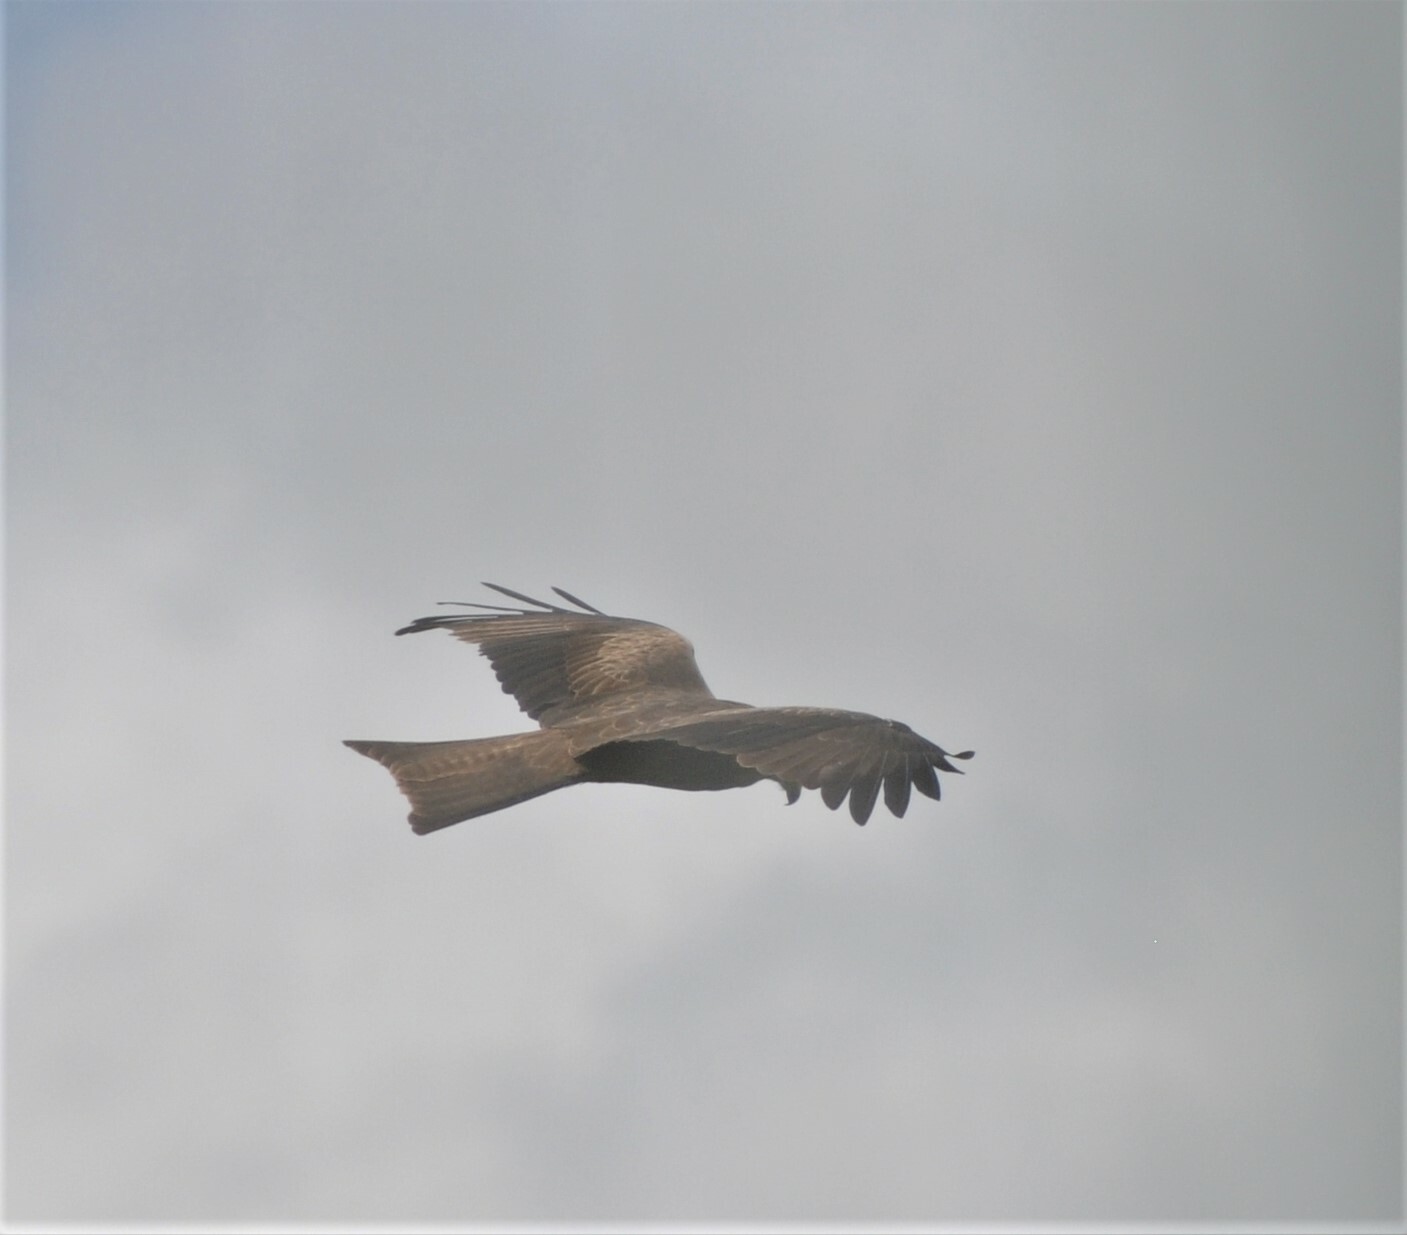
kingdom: Animalia
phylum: Chordata
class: Aves
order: Accipitriformes
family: Accipitridae
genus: Milvus
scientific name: Milvus migrans
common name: Black kite
